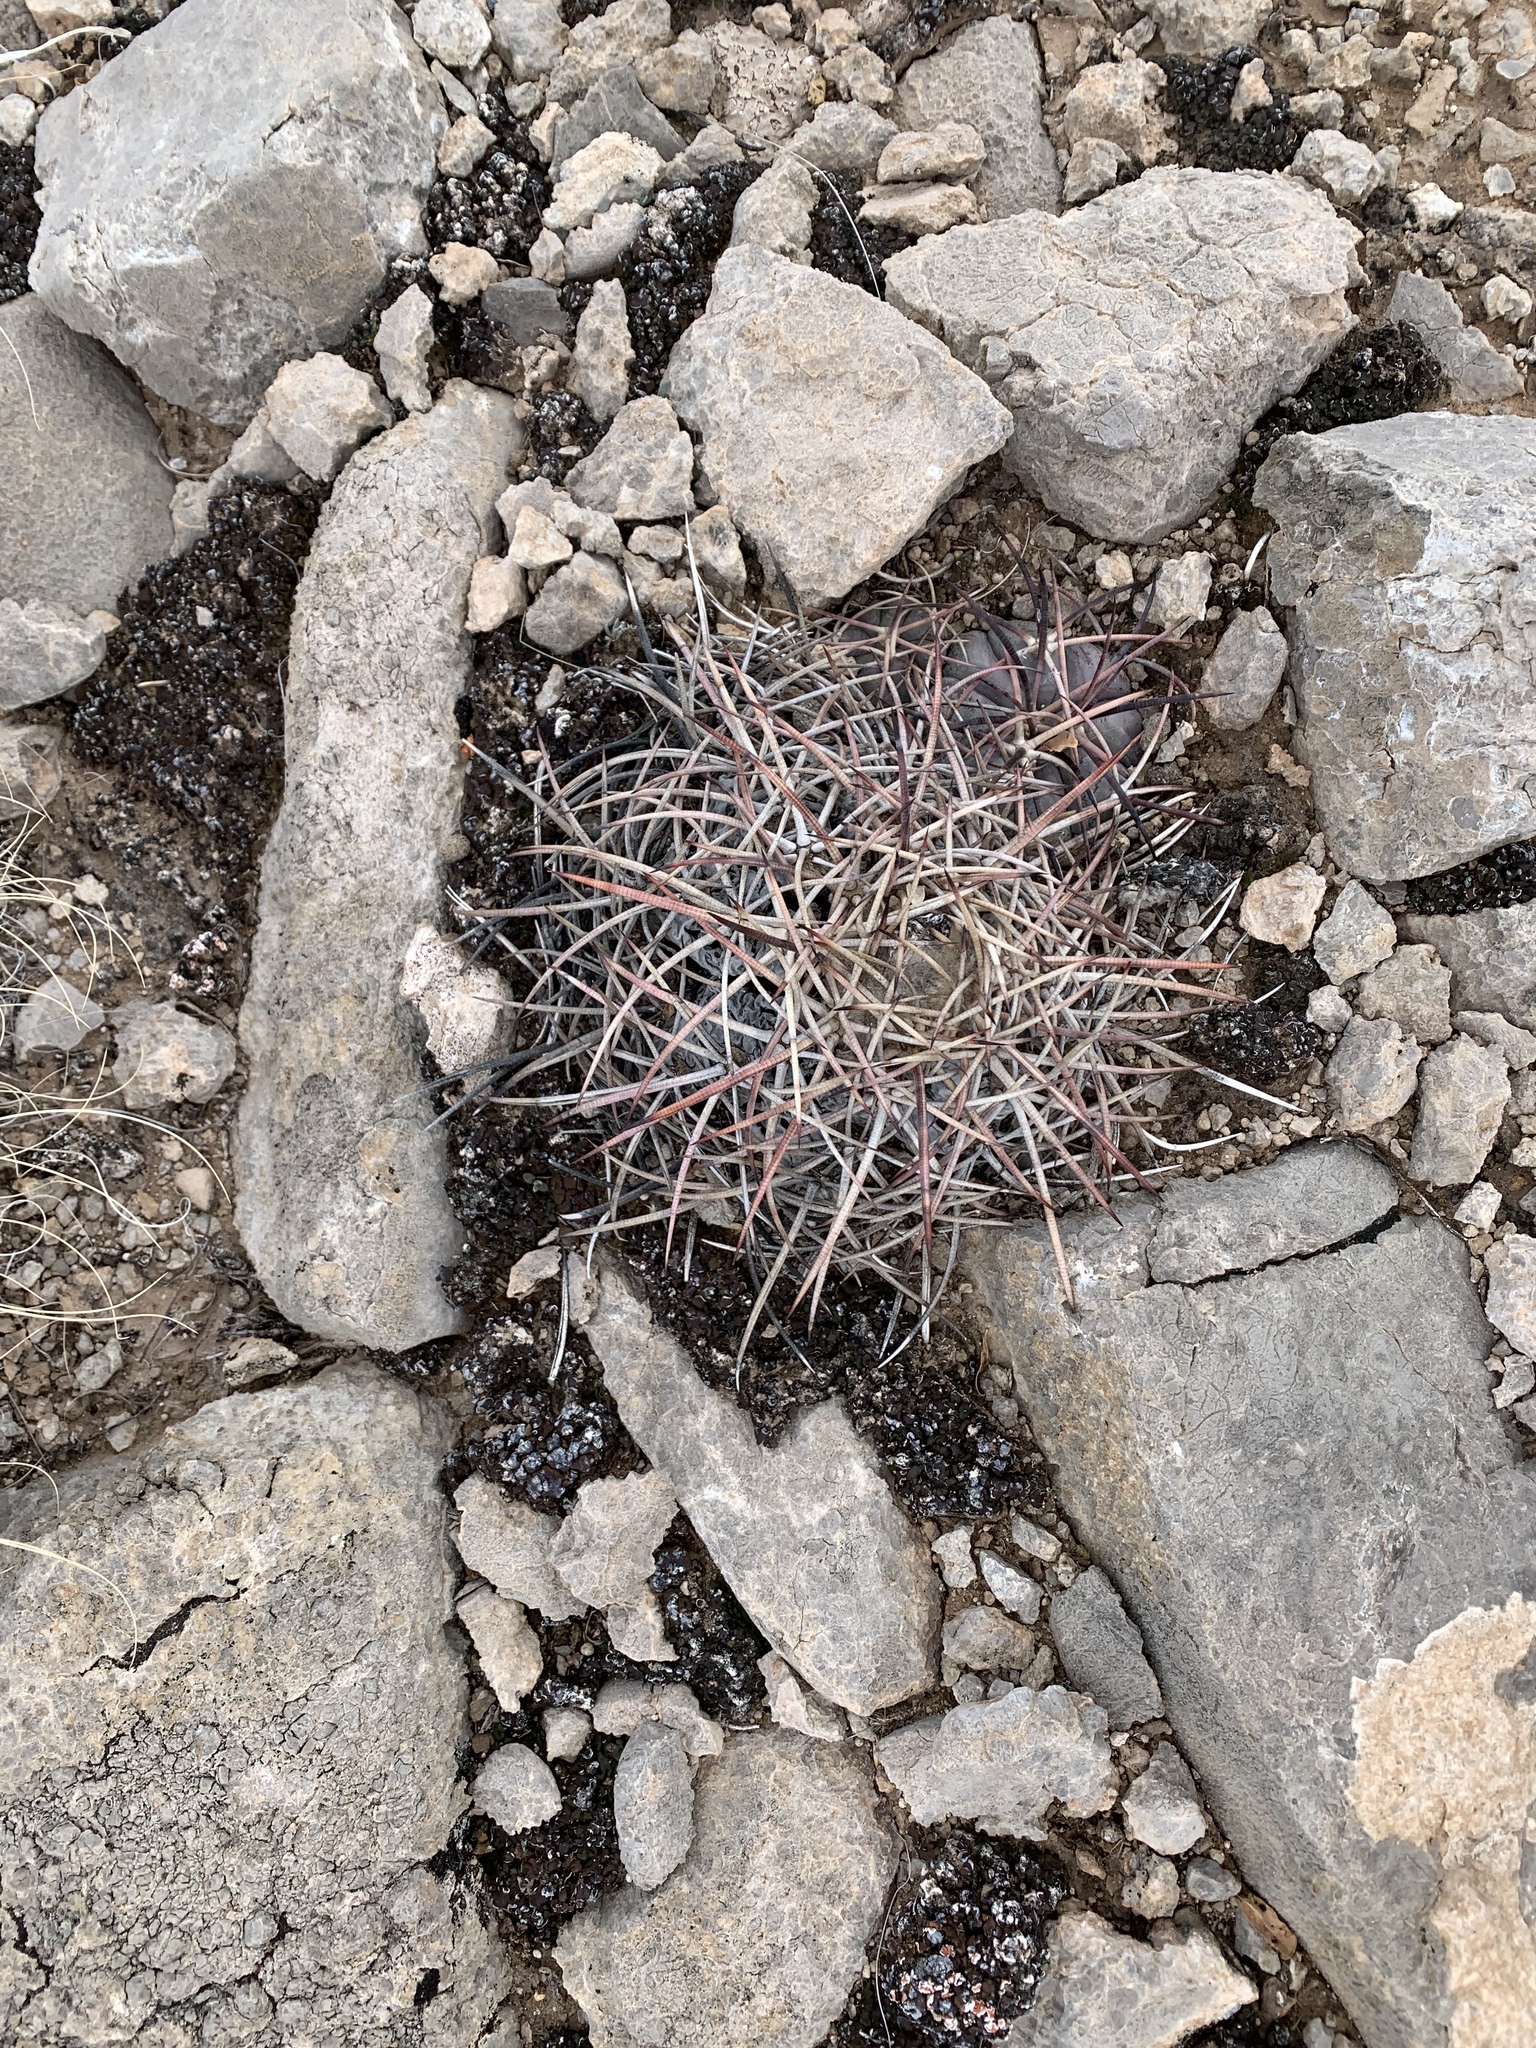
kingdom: Plantae
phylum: Tracheophyta
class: Magnoliopsida
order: Caryophyllales
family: Cactaceae
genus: Echinocactus
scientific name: Echinocactus horizonthalonius
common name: Devilshead
